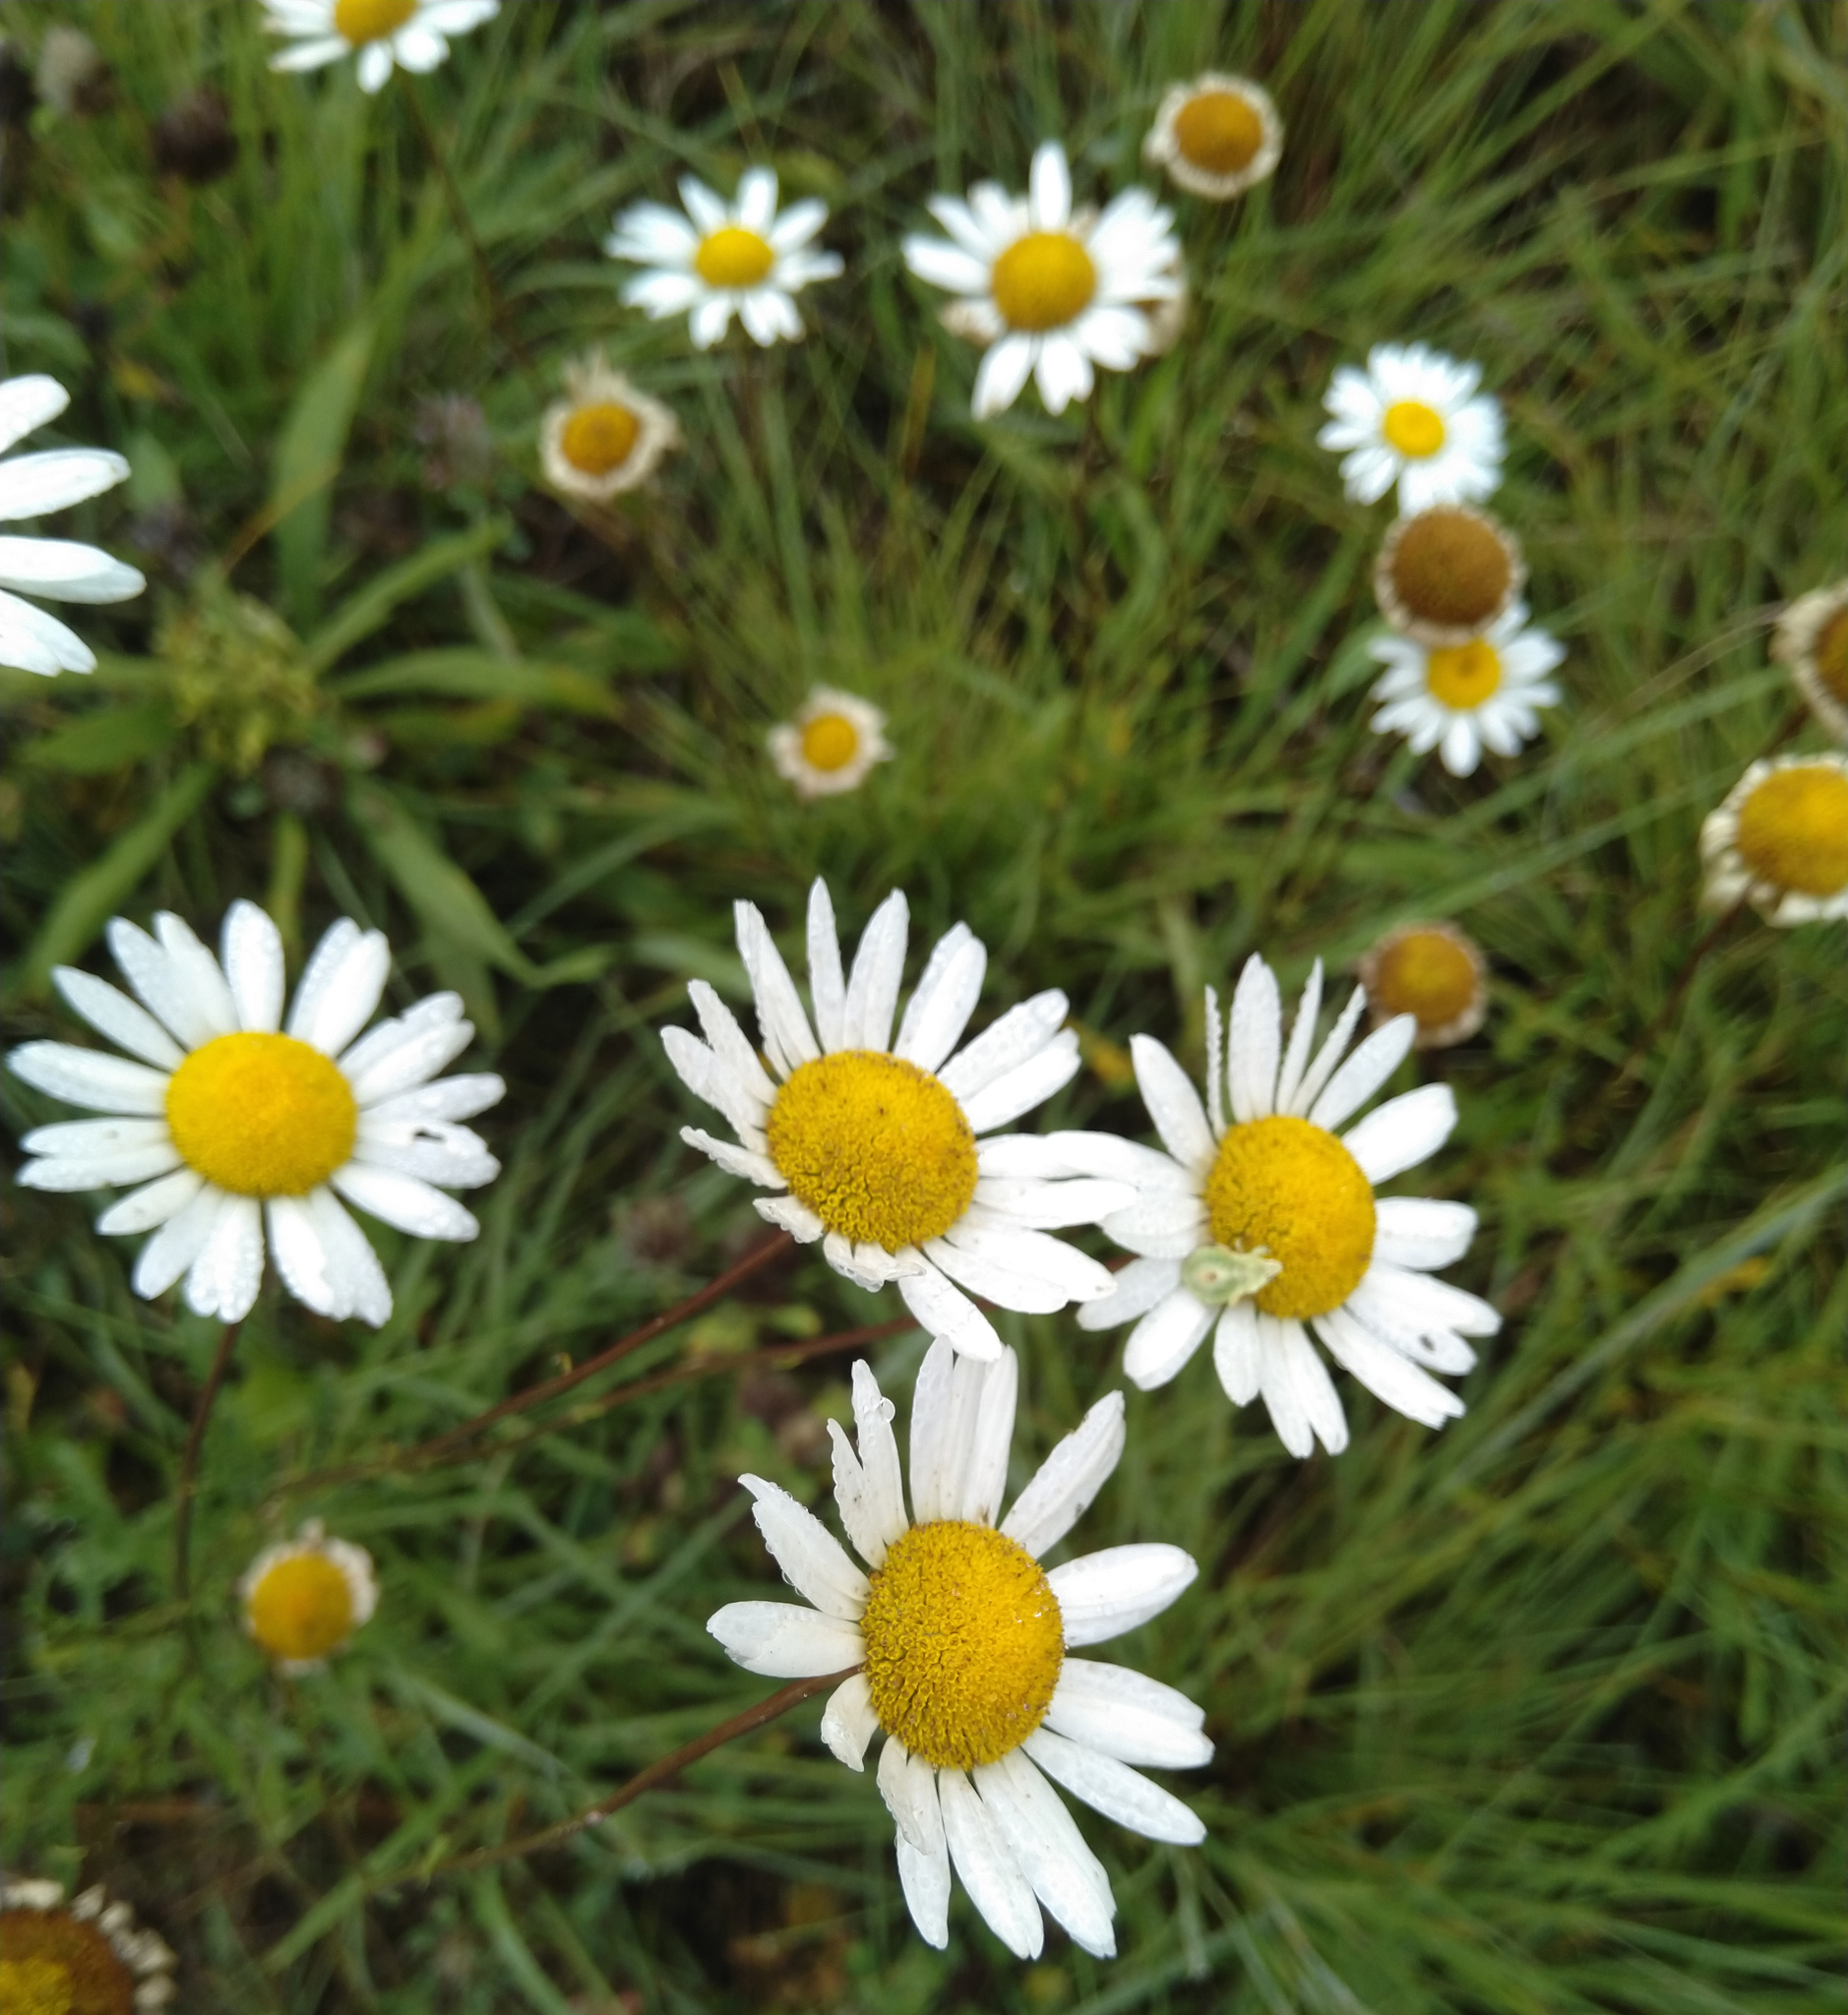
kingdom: Plantae
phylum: Tracheophyta
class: Magnoliopsida
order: Asterales
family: Asteraceae
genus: Leucanthemum
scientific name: Leucanthemum vulgare
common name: Oxeye daisy
